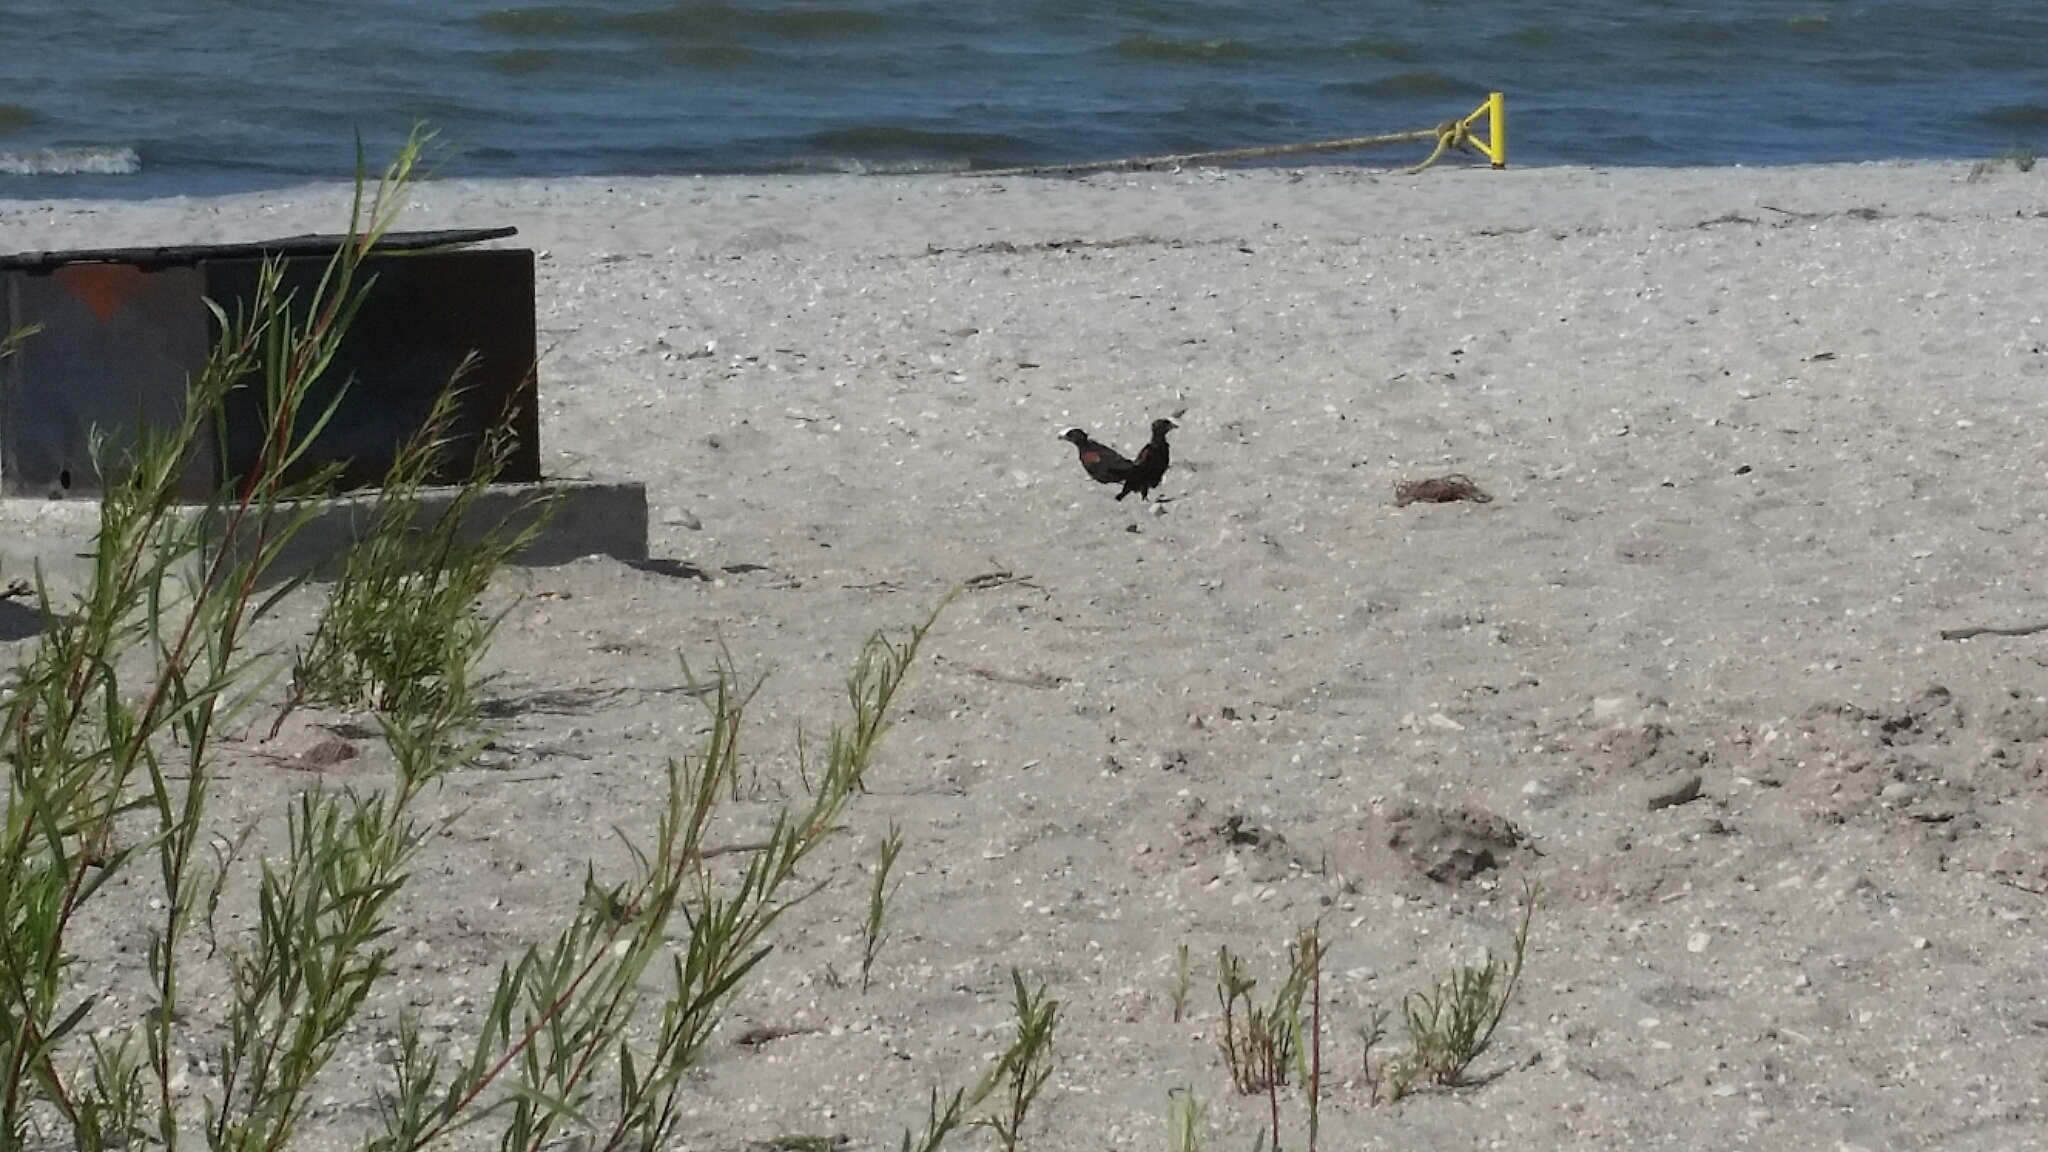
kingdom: Animalia
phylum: Chordata
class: Aves
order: Passeriformes
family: Icteridae
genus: Agelaius
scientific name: Agelaius phoeniceus
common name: Red-winged blackbird
